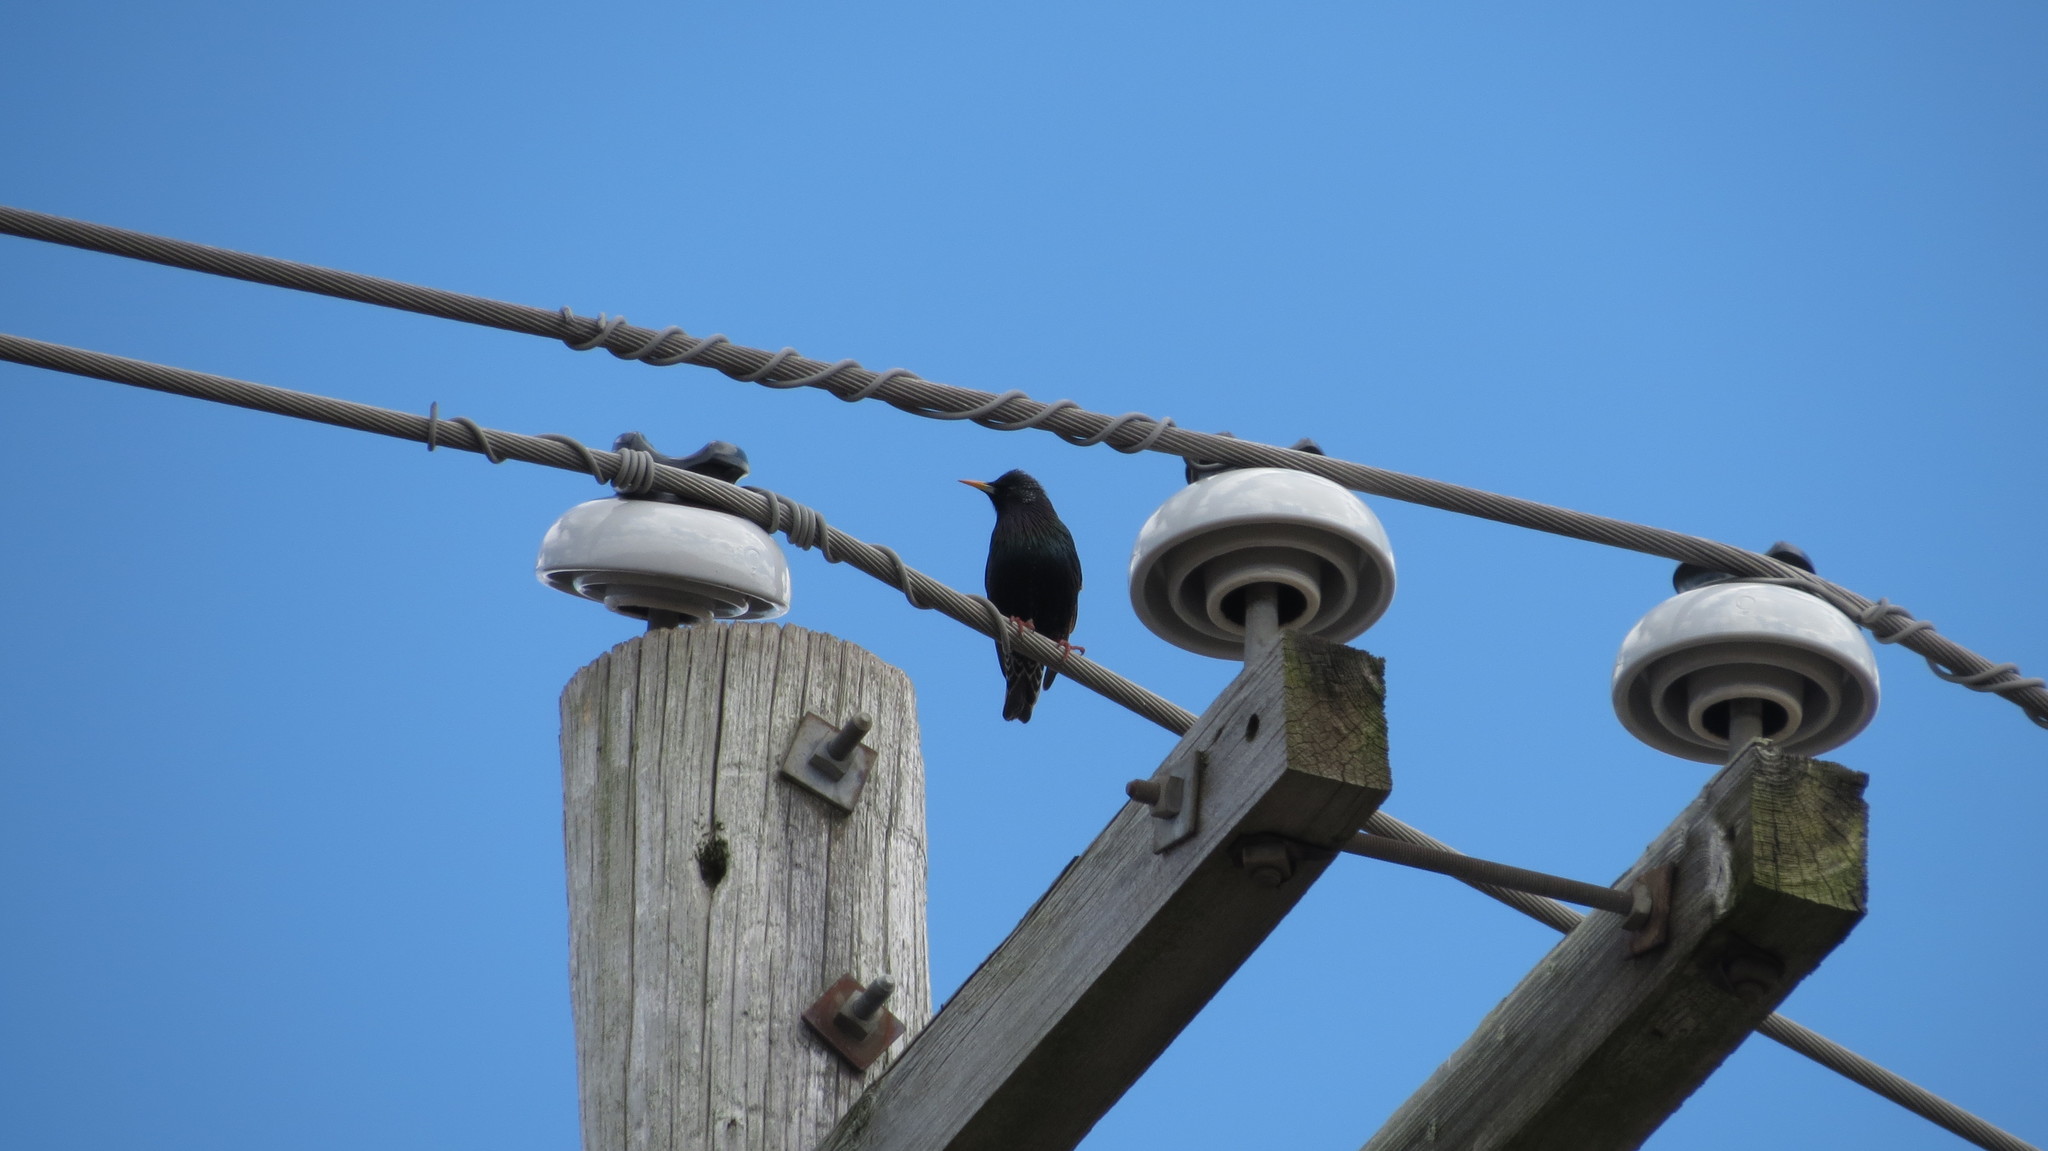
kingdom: Animalia
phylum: Chordata
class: Aves
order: Passeriformes
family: Sturnidae
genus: Sturnus
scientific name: Sturnus vulgaris
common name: Common starling
